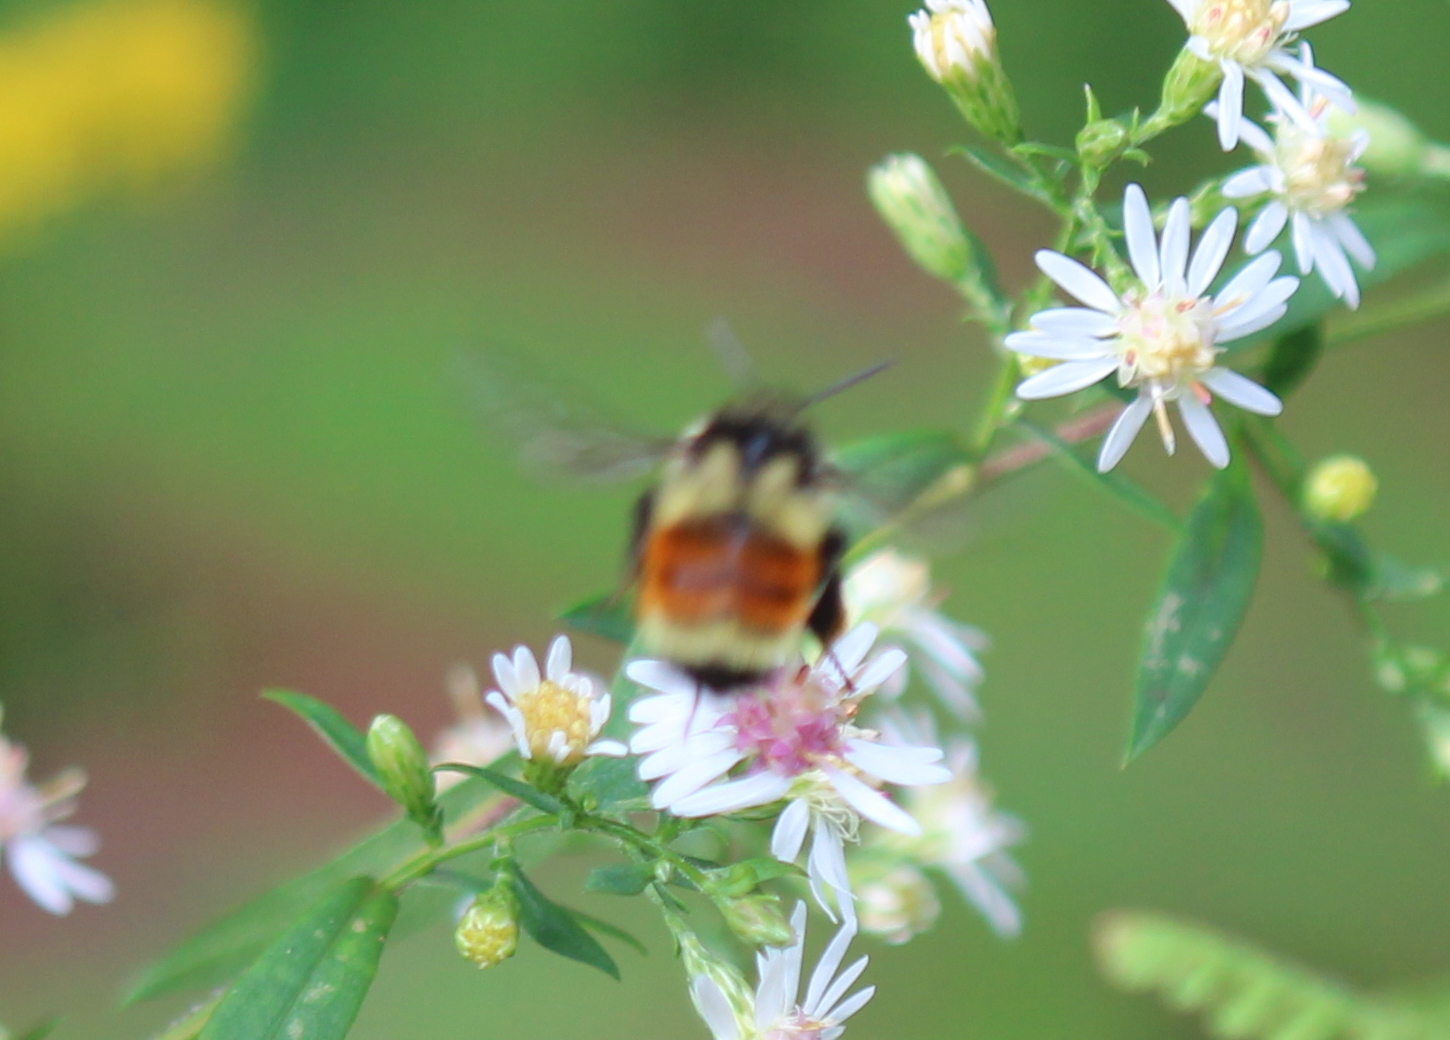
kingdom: Animalia
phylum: Arthropoda
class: Insecta
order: Hymenoptera
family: Apidae
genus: Bombus
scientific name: Bombus ternarius
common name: Tri-colored bumble bee
